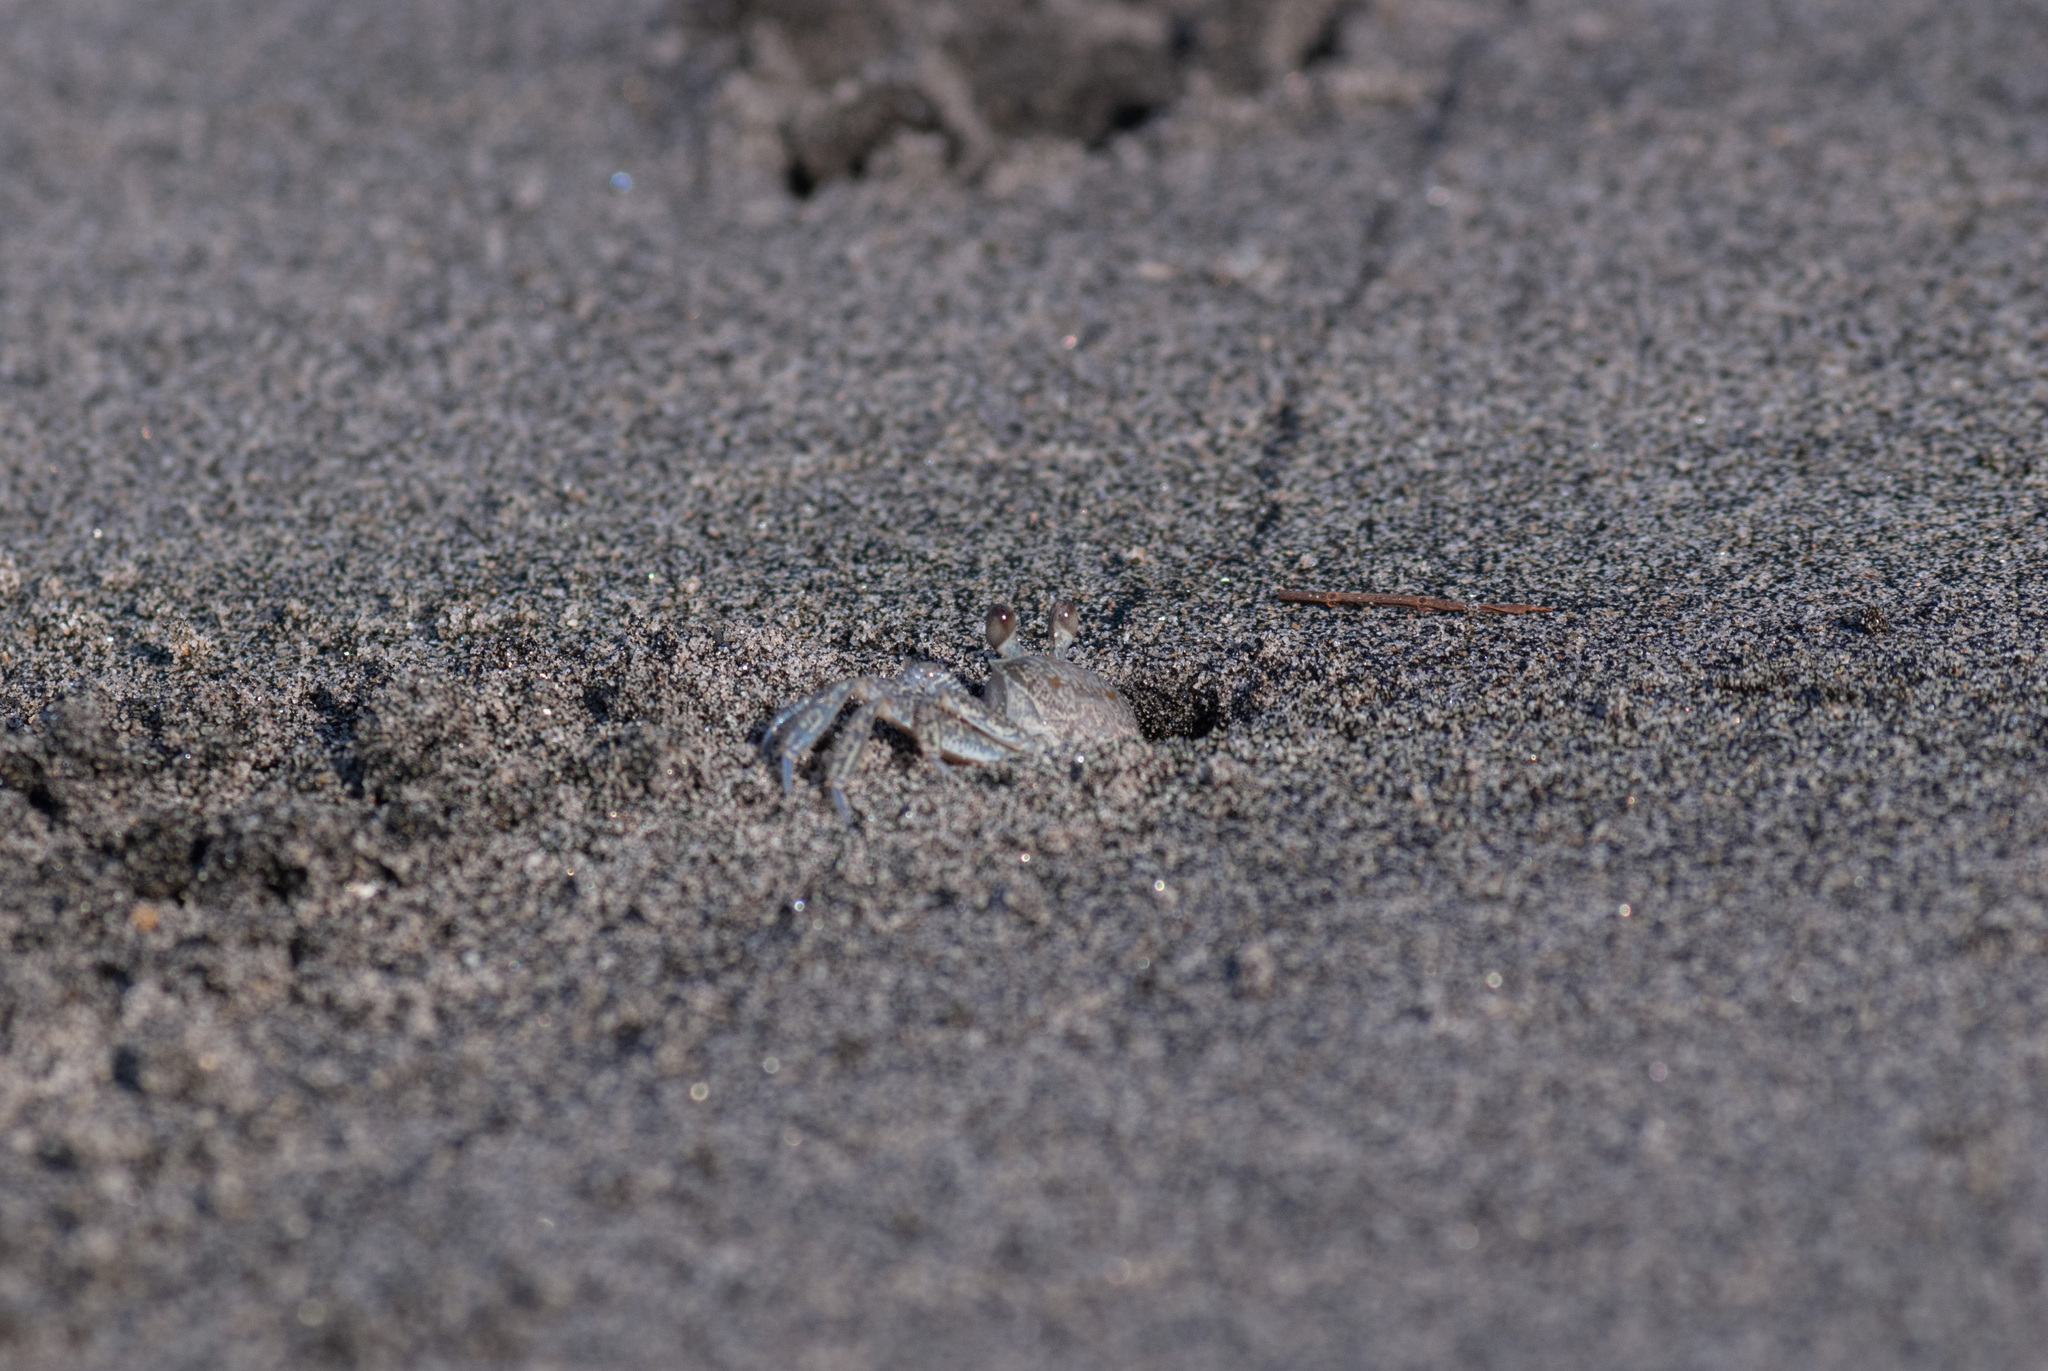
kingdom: Animalia
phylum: Arthropoda
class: Malacostraca
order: Decapoda
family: Ocypodidae
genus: Ocypode
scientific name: Ocypode quadrata
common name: Ghost crab
